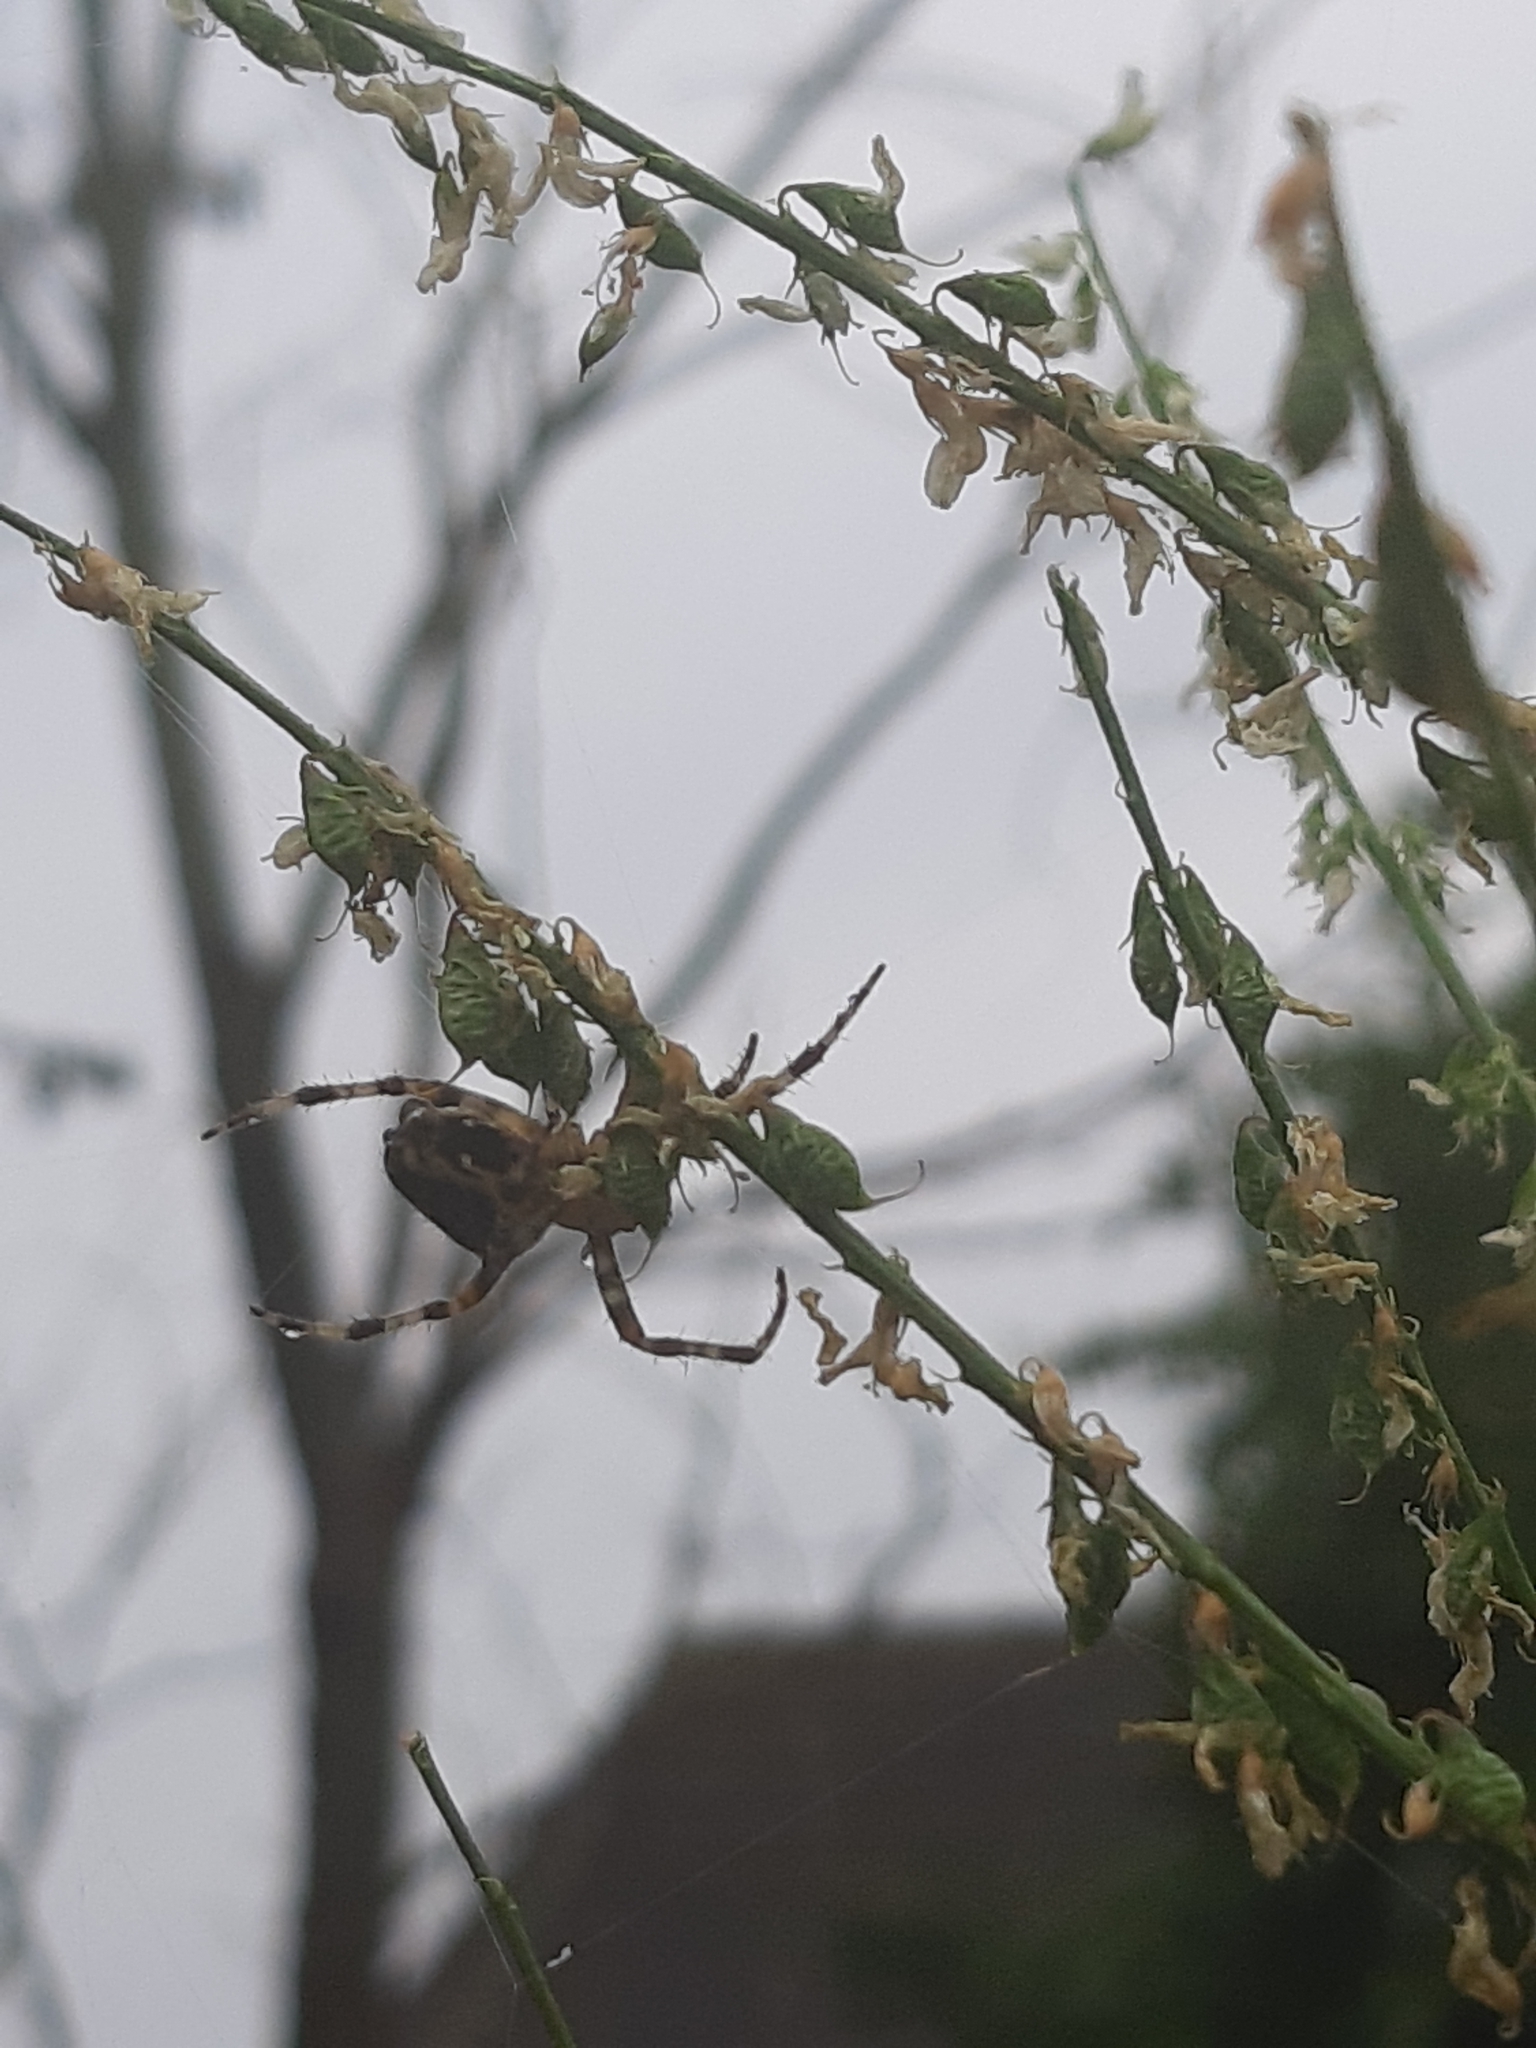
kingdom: Animalia
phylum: Arthropoda
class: Arachnida
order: Araneae
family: Araneidae
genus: Araneus
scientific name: Araneus diadematus
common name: Cross orbweaver
